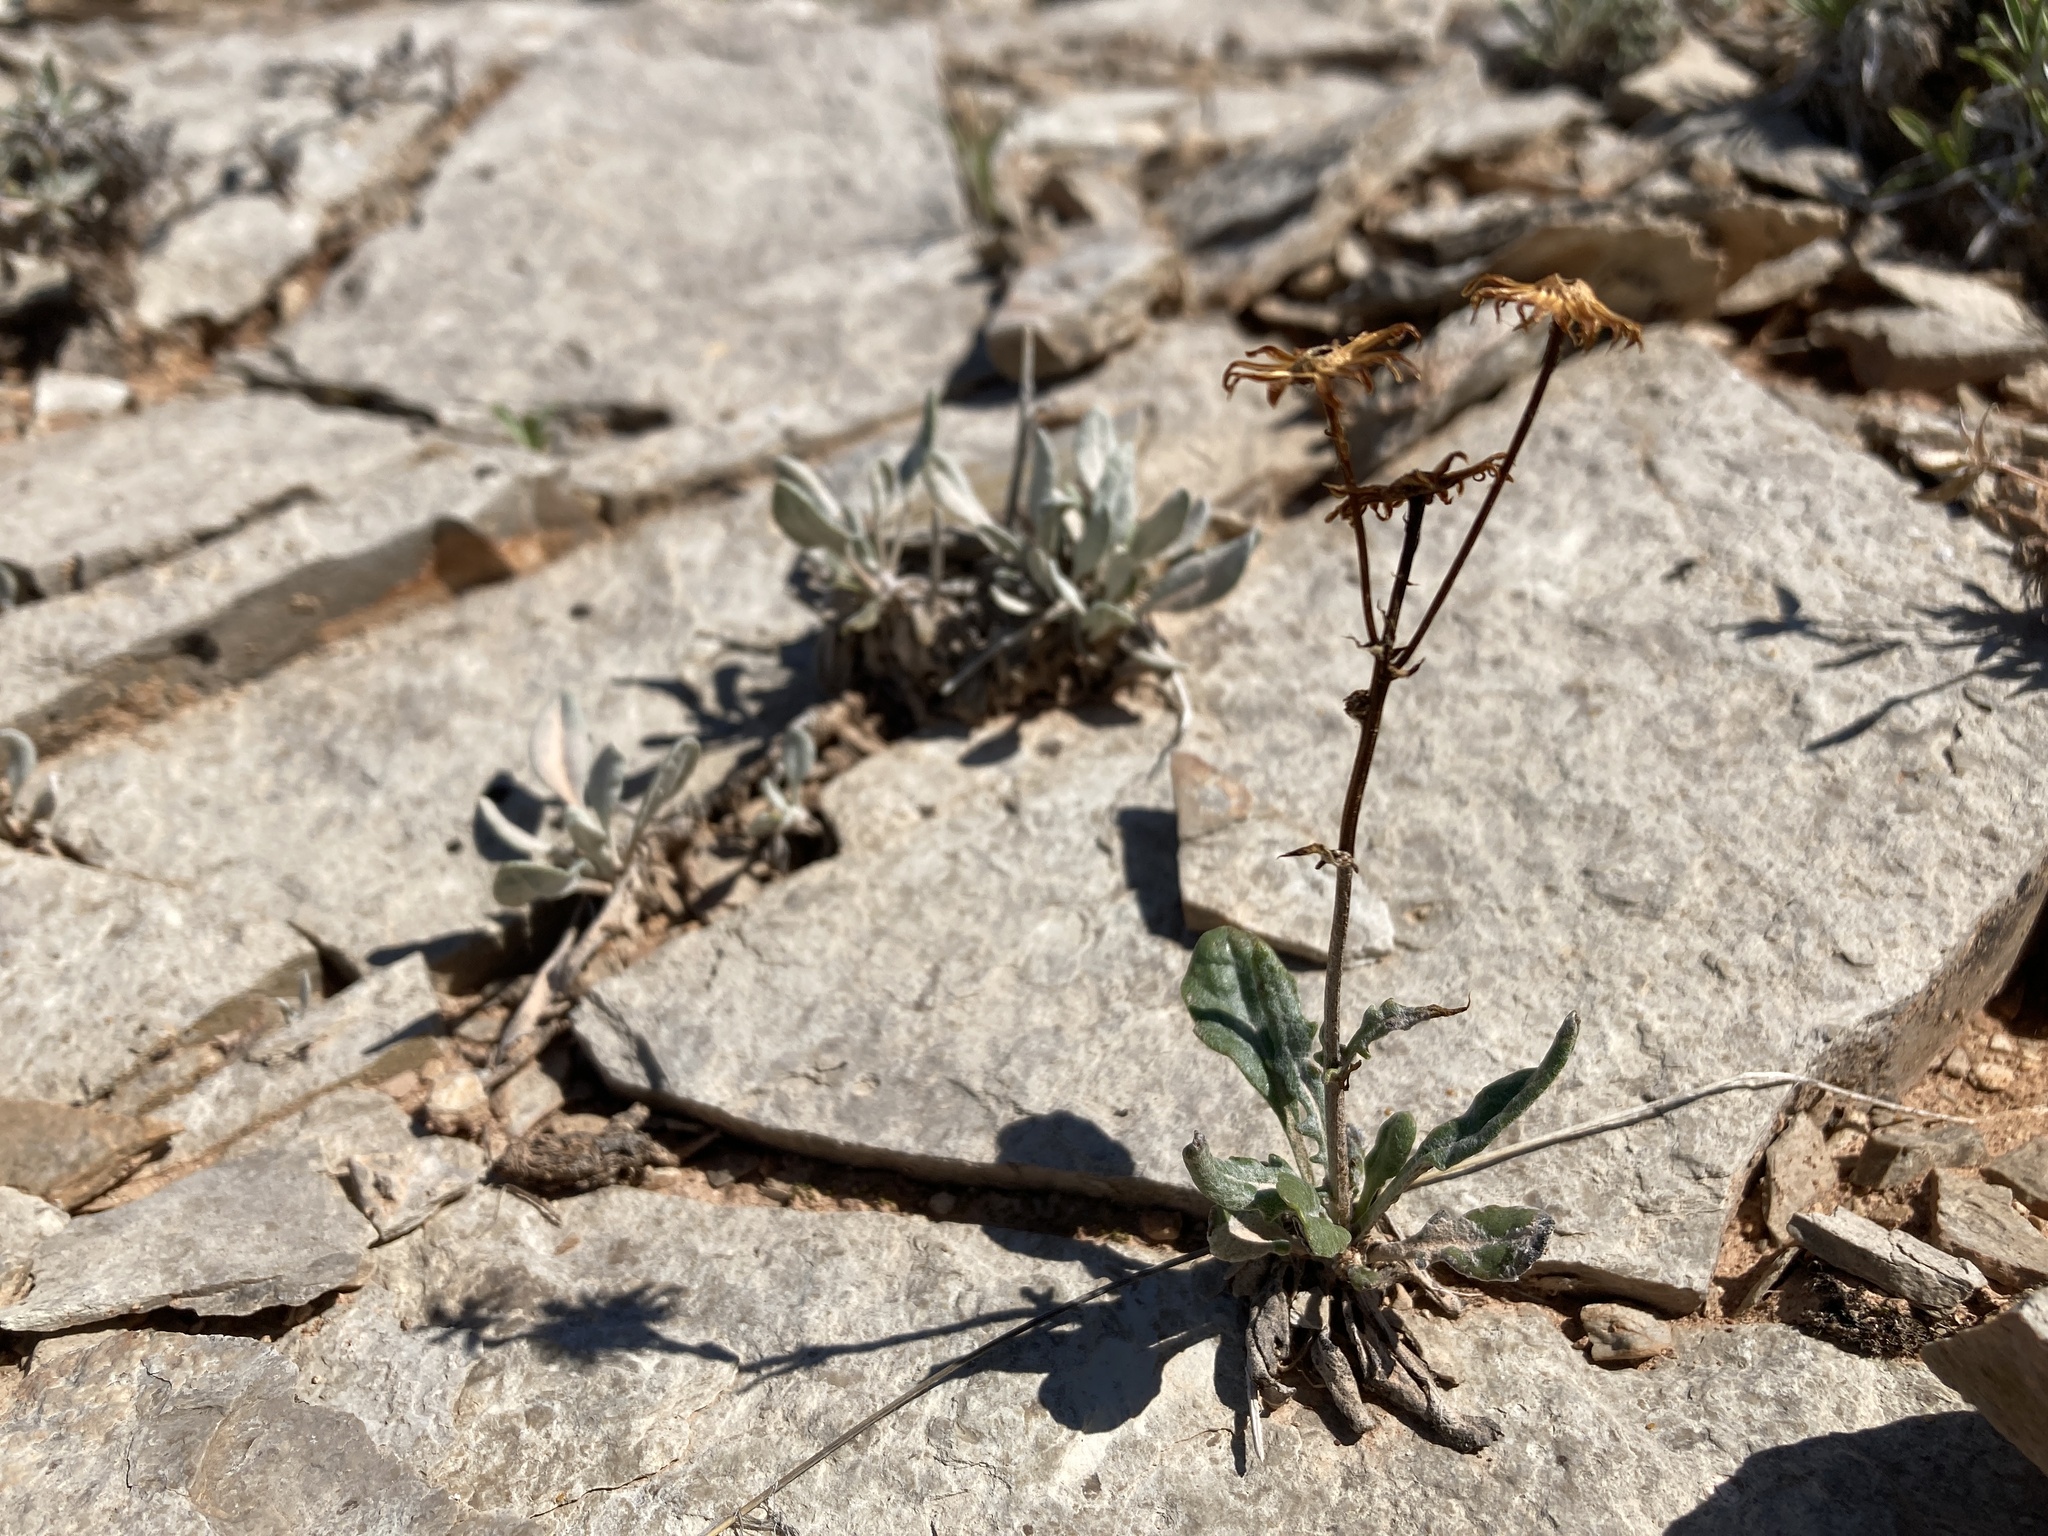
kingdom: Plantae
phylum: Tracheophyta
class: Magnoliopsida
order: Asterales
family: Asteraceae
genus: Packera
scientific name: Packera cana
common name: Woolly groundsel
